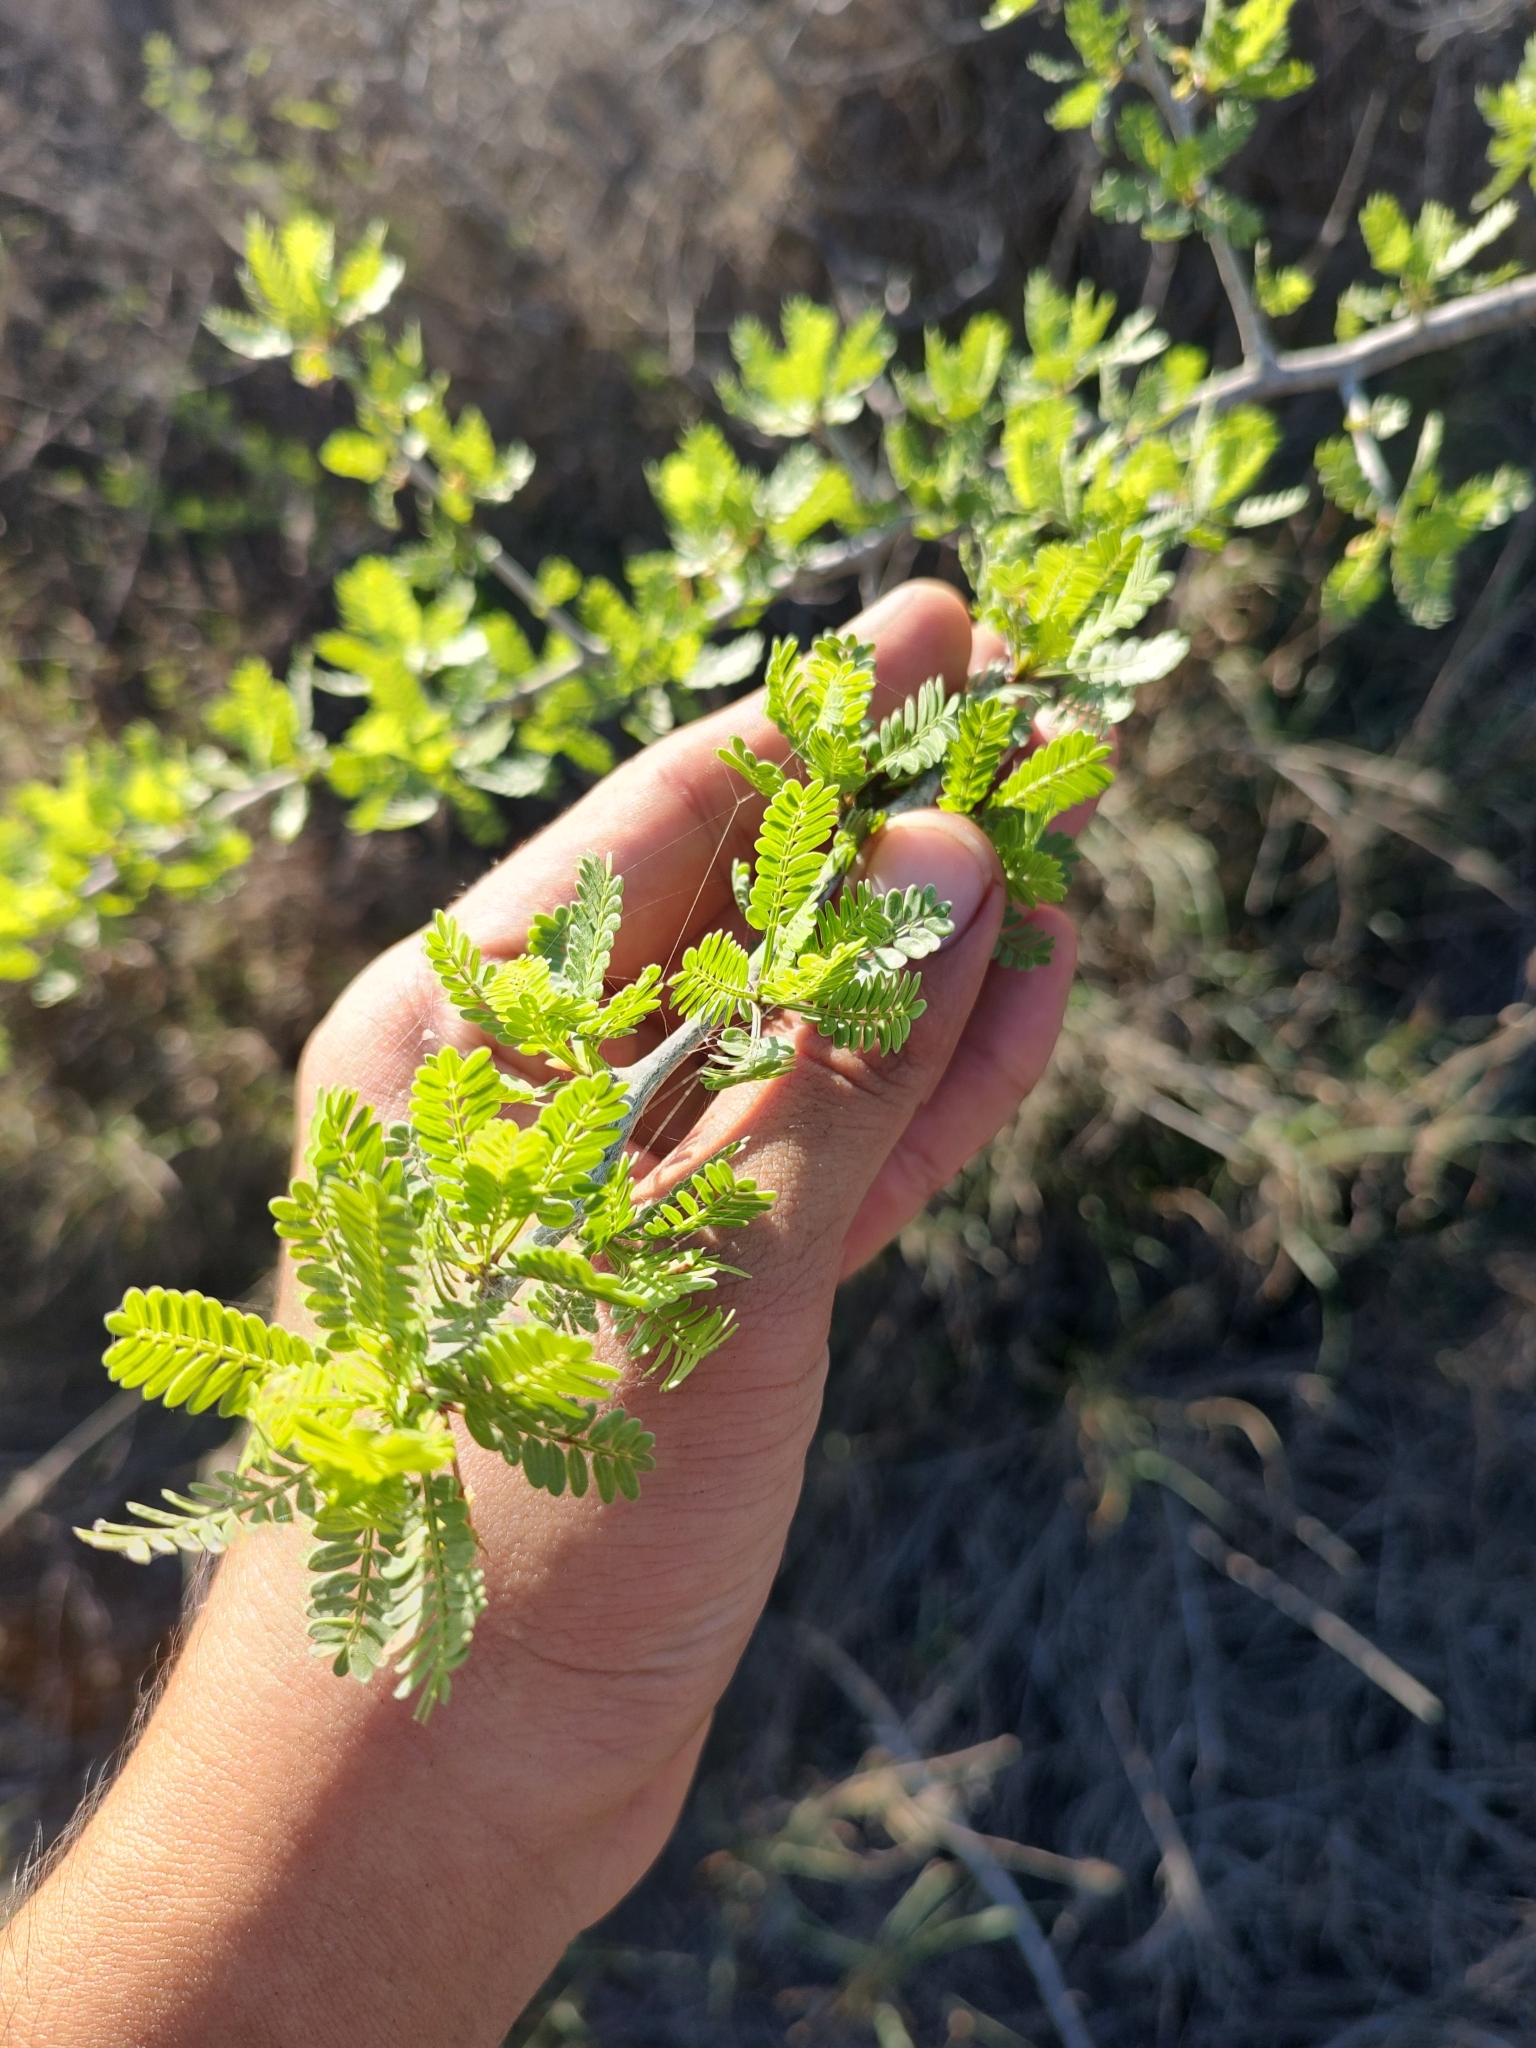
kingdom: Plantae
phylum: Tracheophyta
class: Magnoliopsida
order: Sapindales
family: Burseraceae
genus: Bursera
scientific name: Bursera microphylla
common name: Elephant tree
